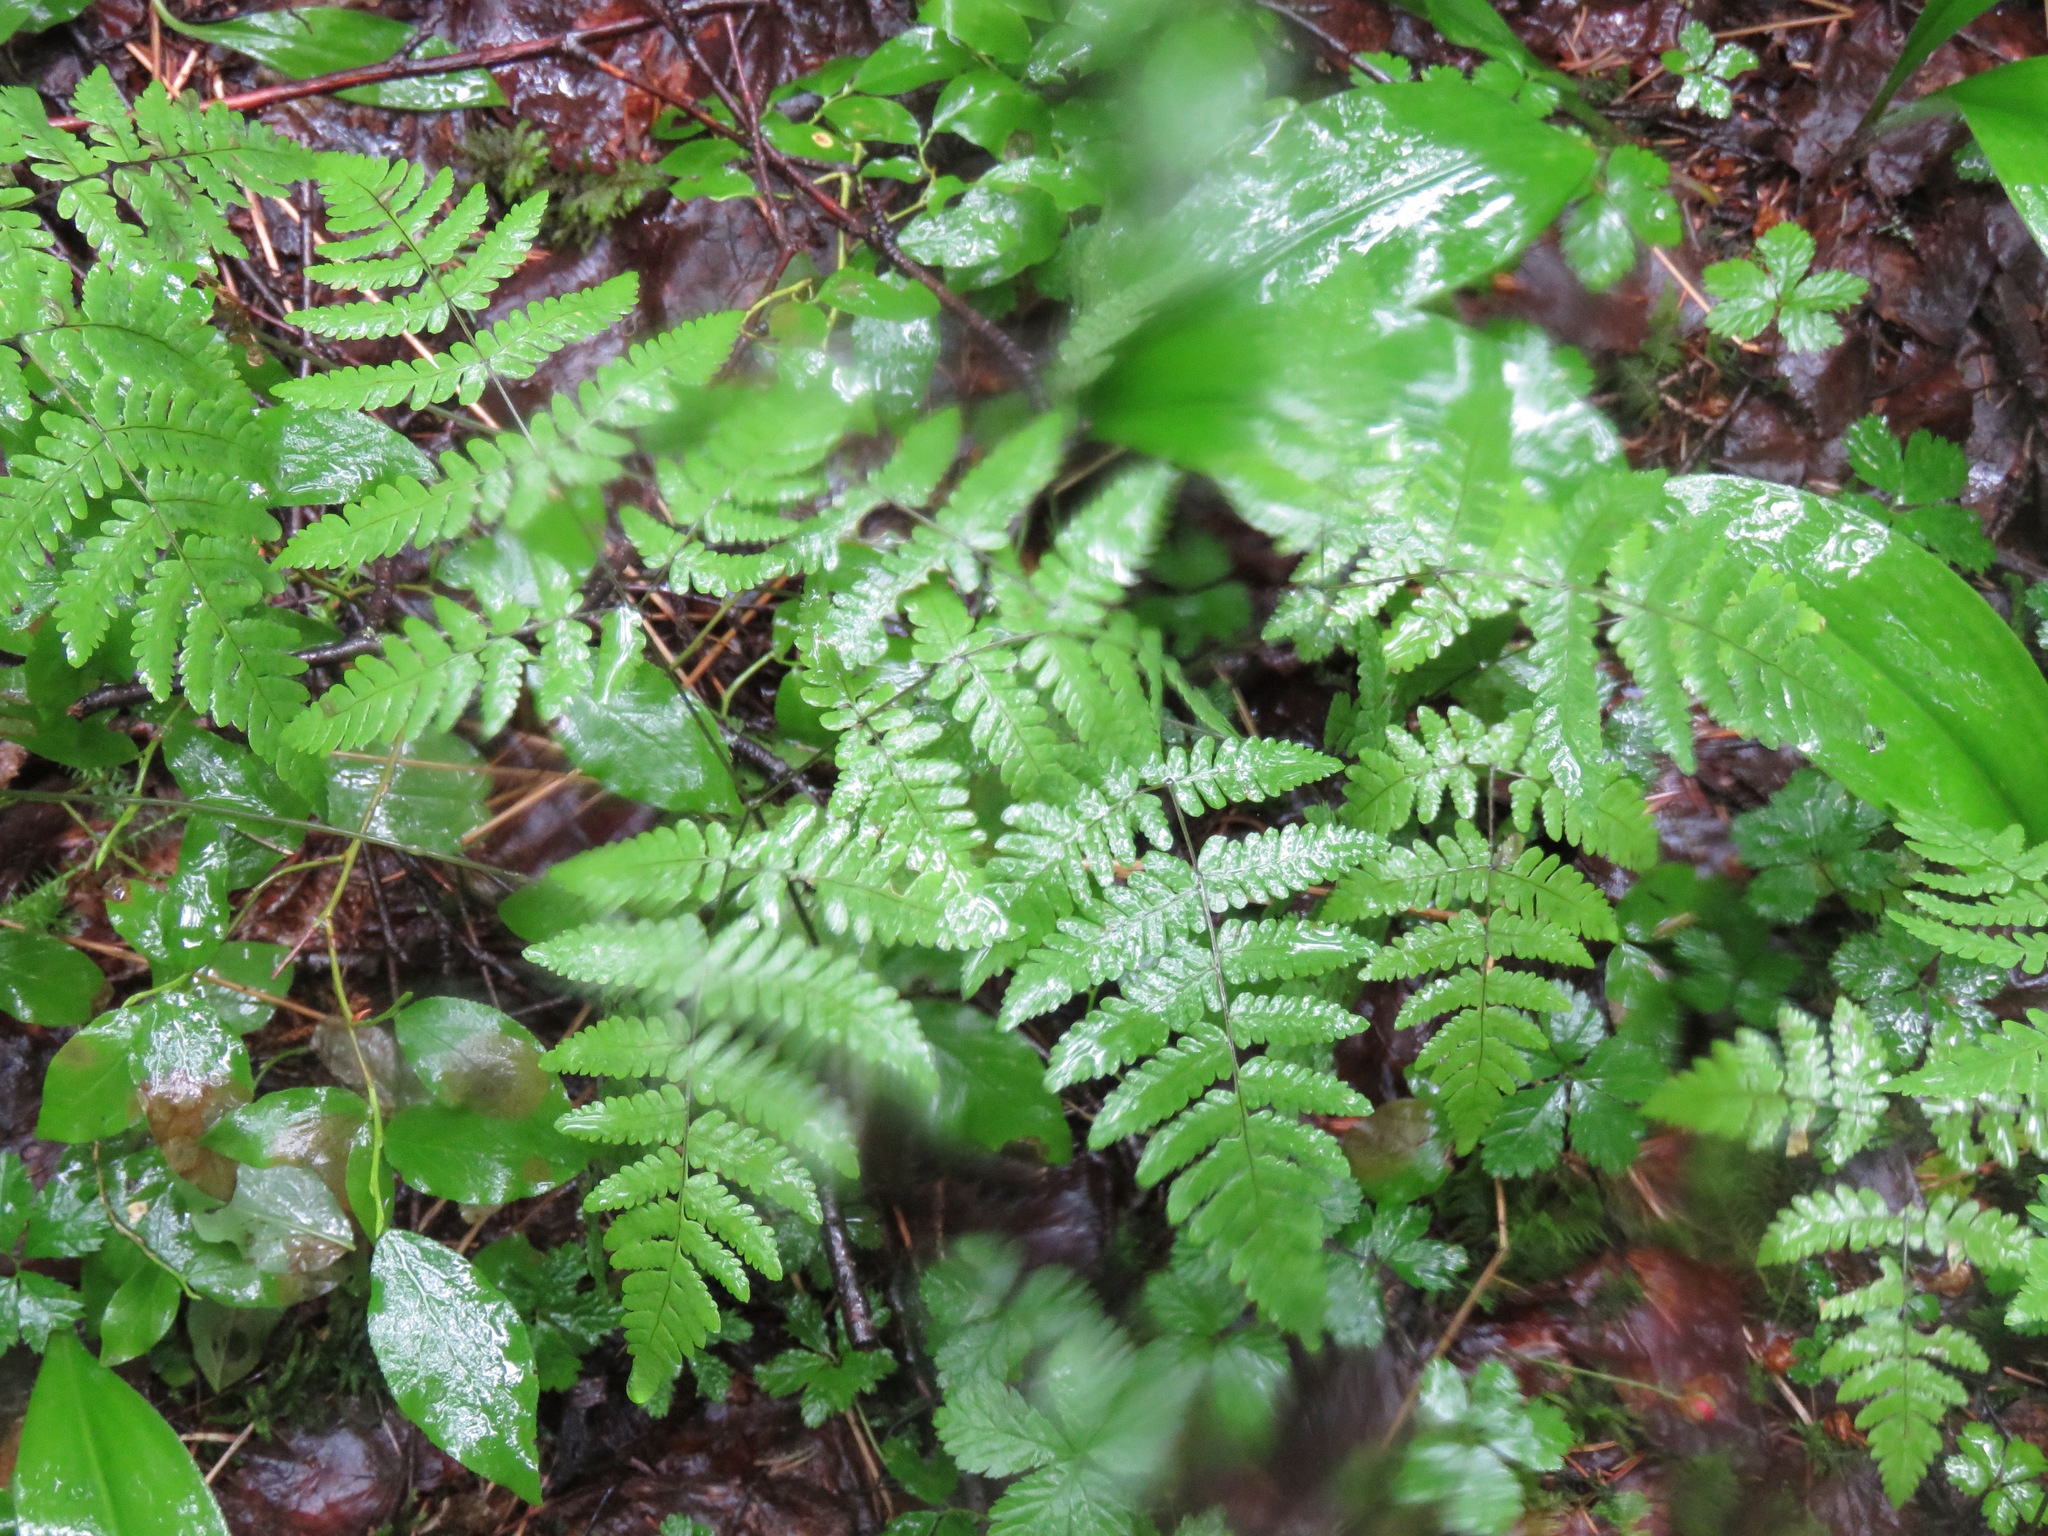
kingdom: Plantae
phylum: Tracheophyta
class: Polypodiopsida
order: Polypodiales
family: Cystopteridaceae
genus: Gymnocarpium
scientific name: Gymnocarpium dryopteris
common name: Oak fern
